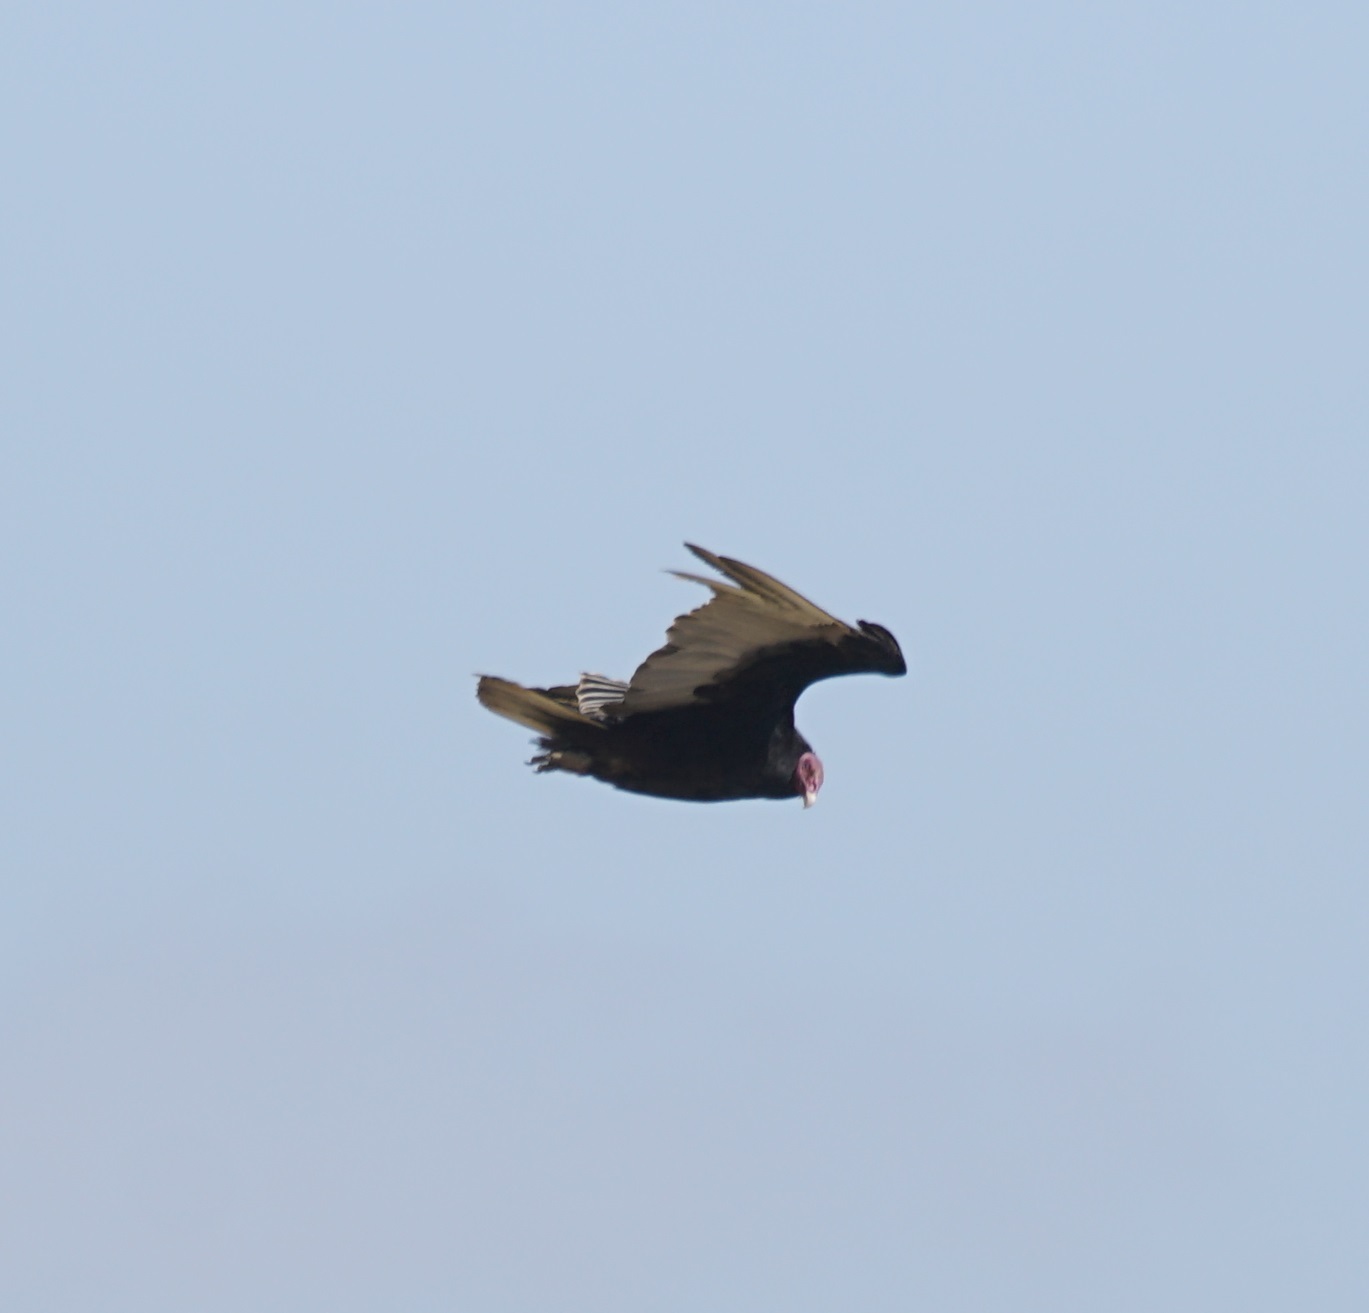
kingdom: Animalia
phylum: Chordata
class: Aves
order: Accipitriformes
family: Cathartidae
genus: Cathartes
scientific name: Cathartes aura
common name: Turkey vulture
